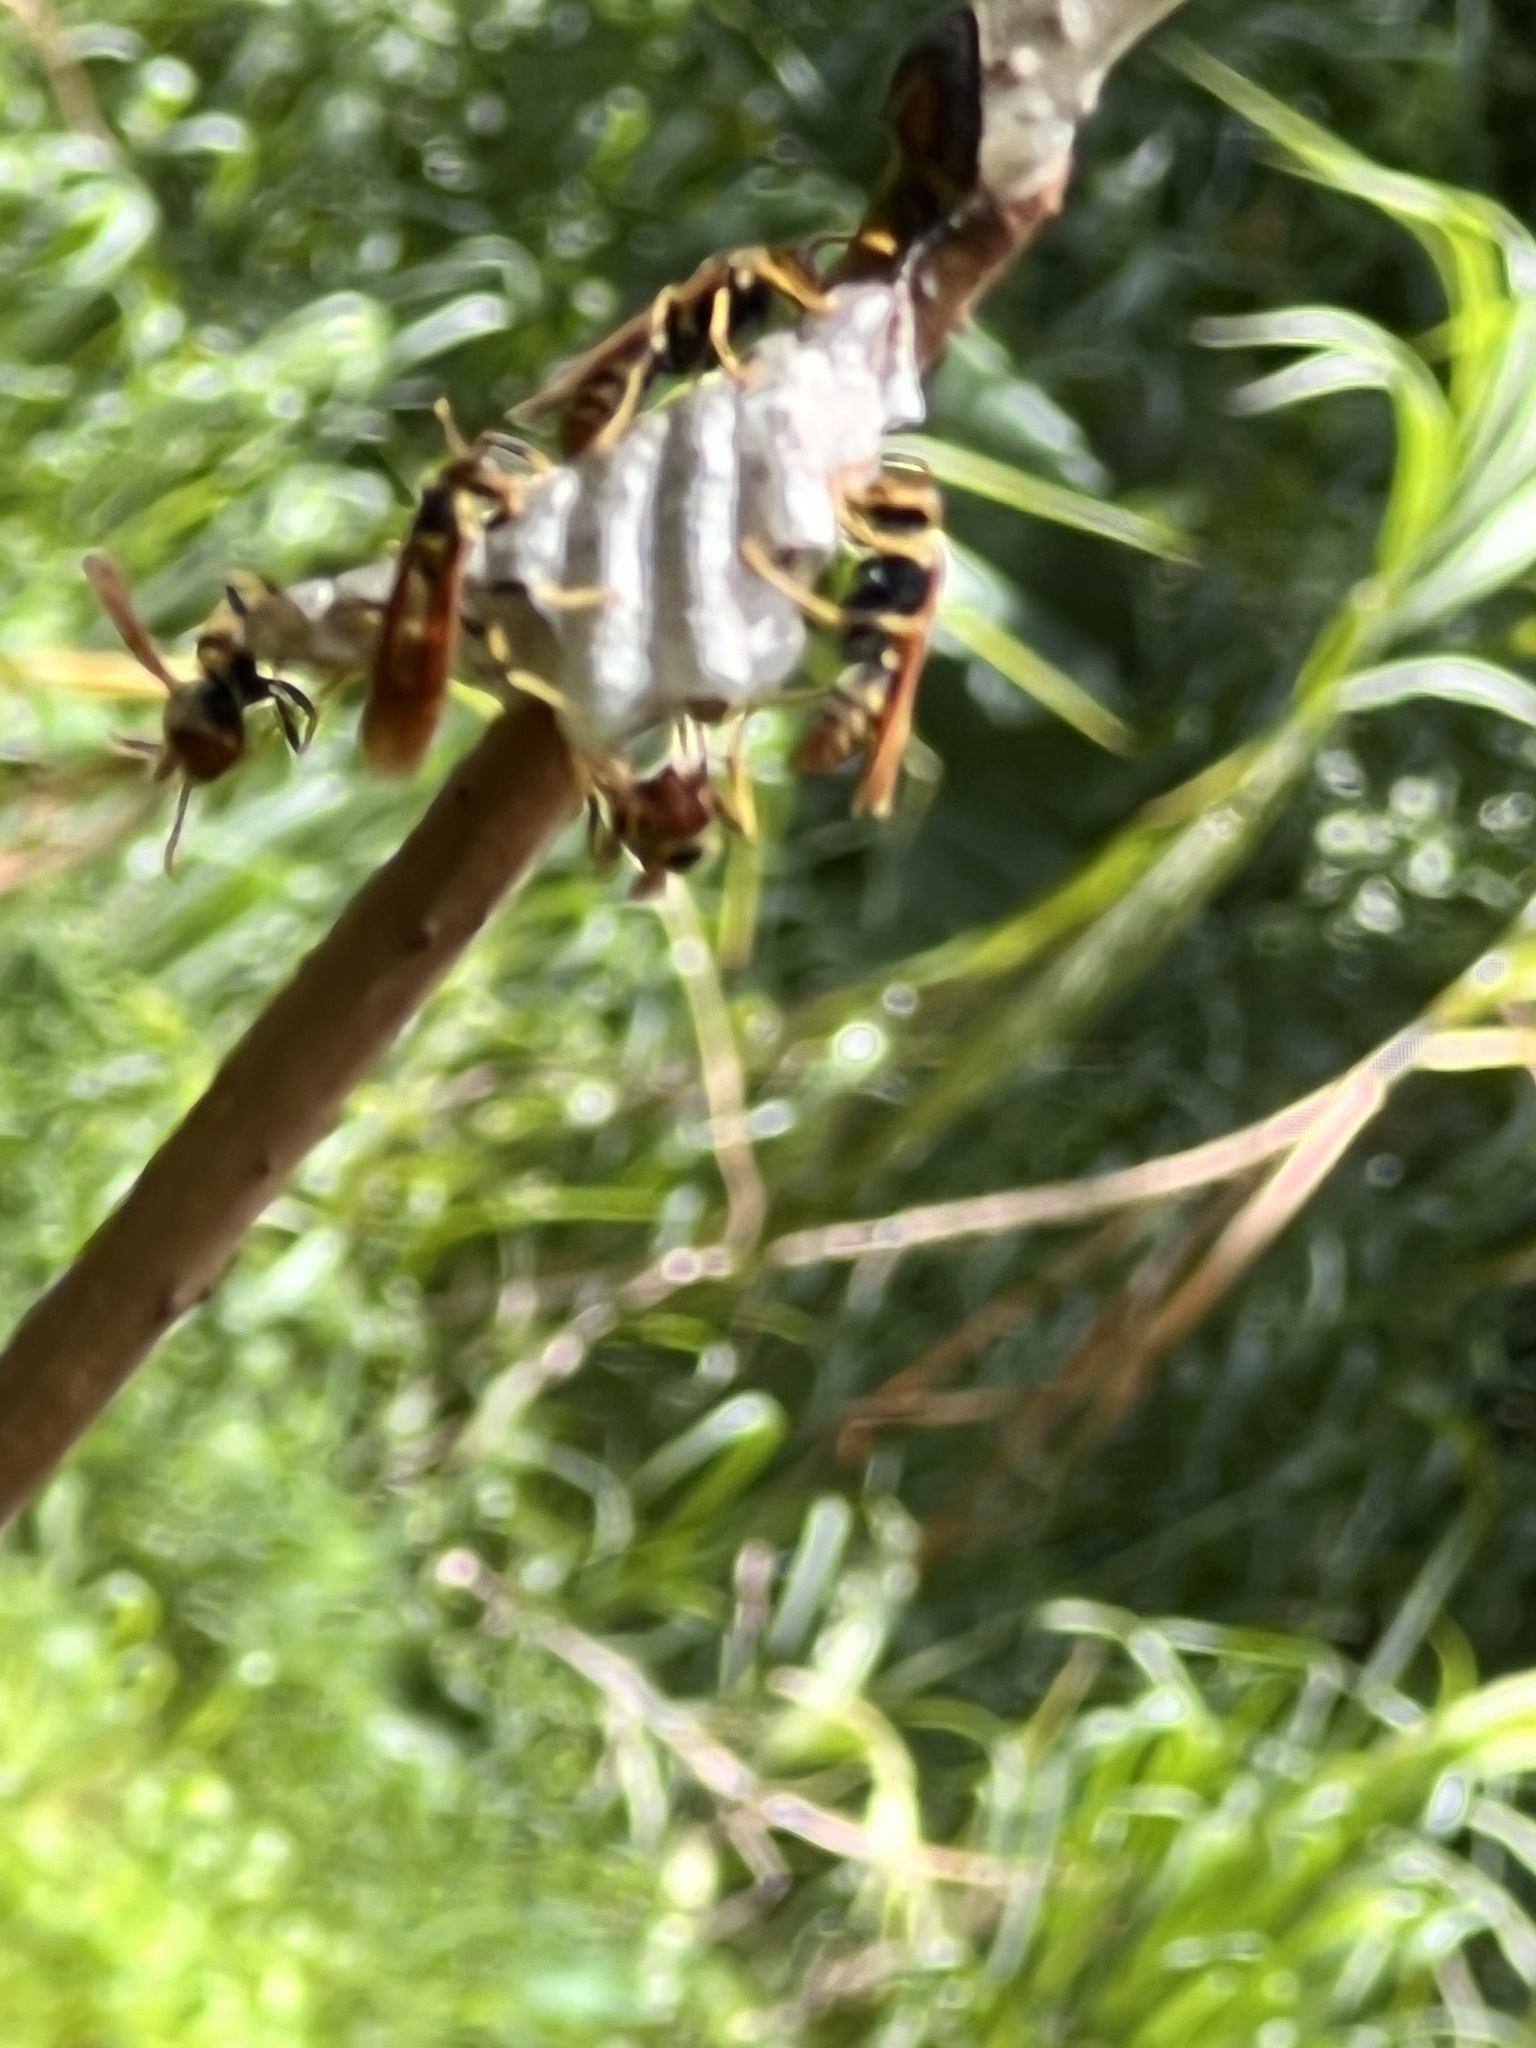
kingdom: Animalia
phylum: Arthropoda
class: Insecta
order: Hymenoptera
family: Eumenidae
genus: Polistes
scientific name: Polistes crinitus
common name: Jack spaniard
